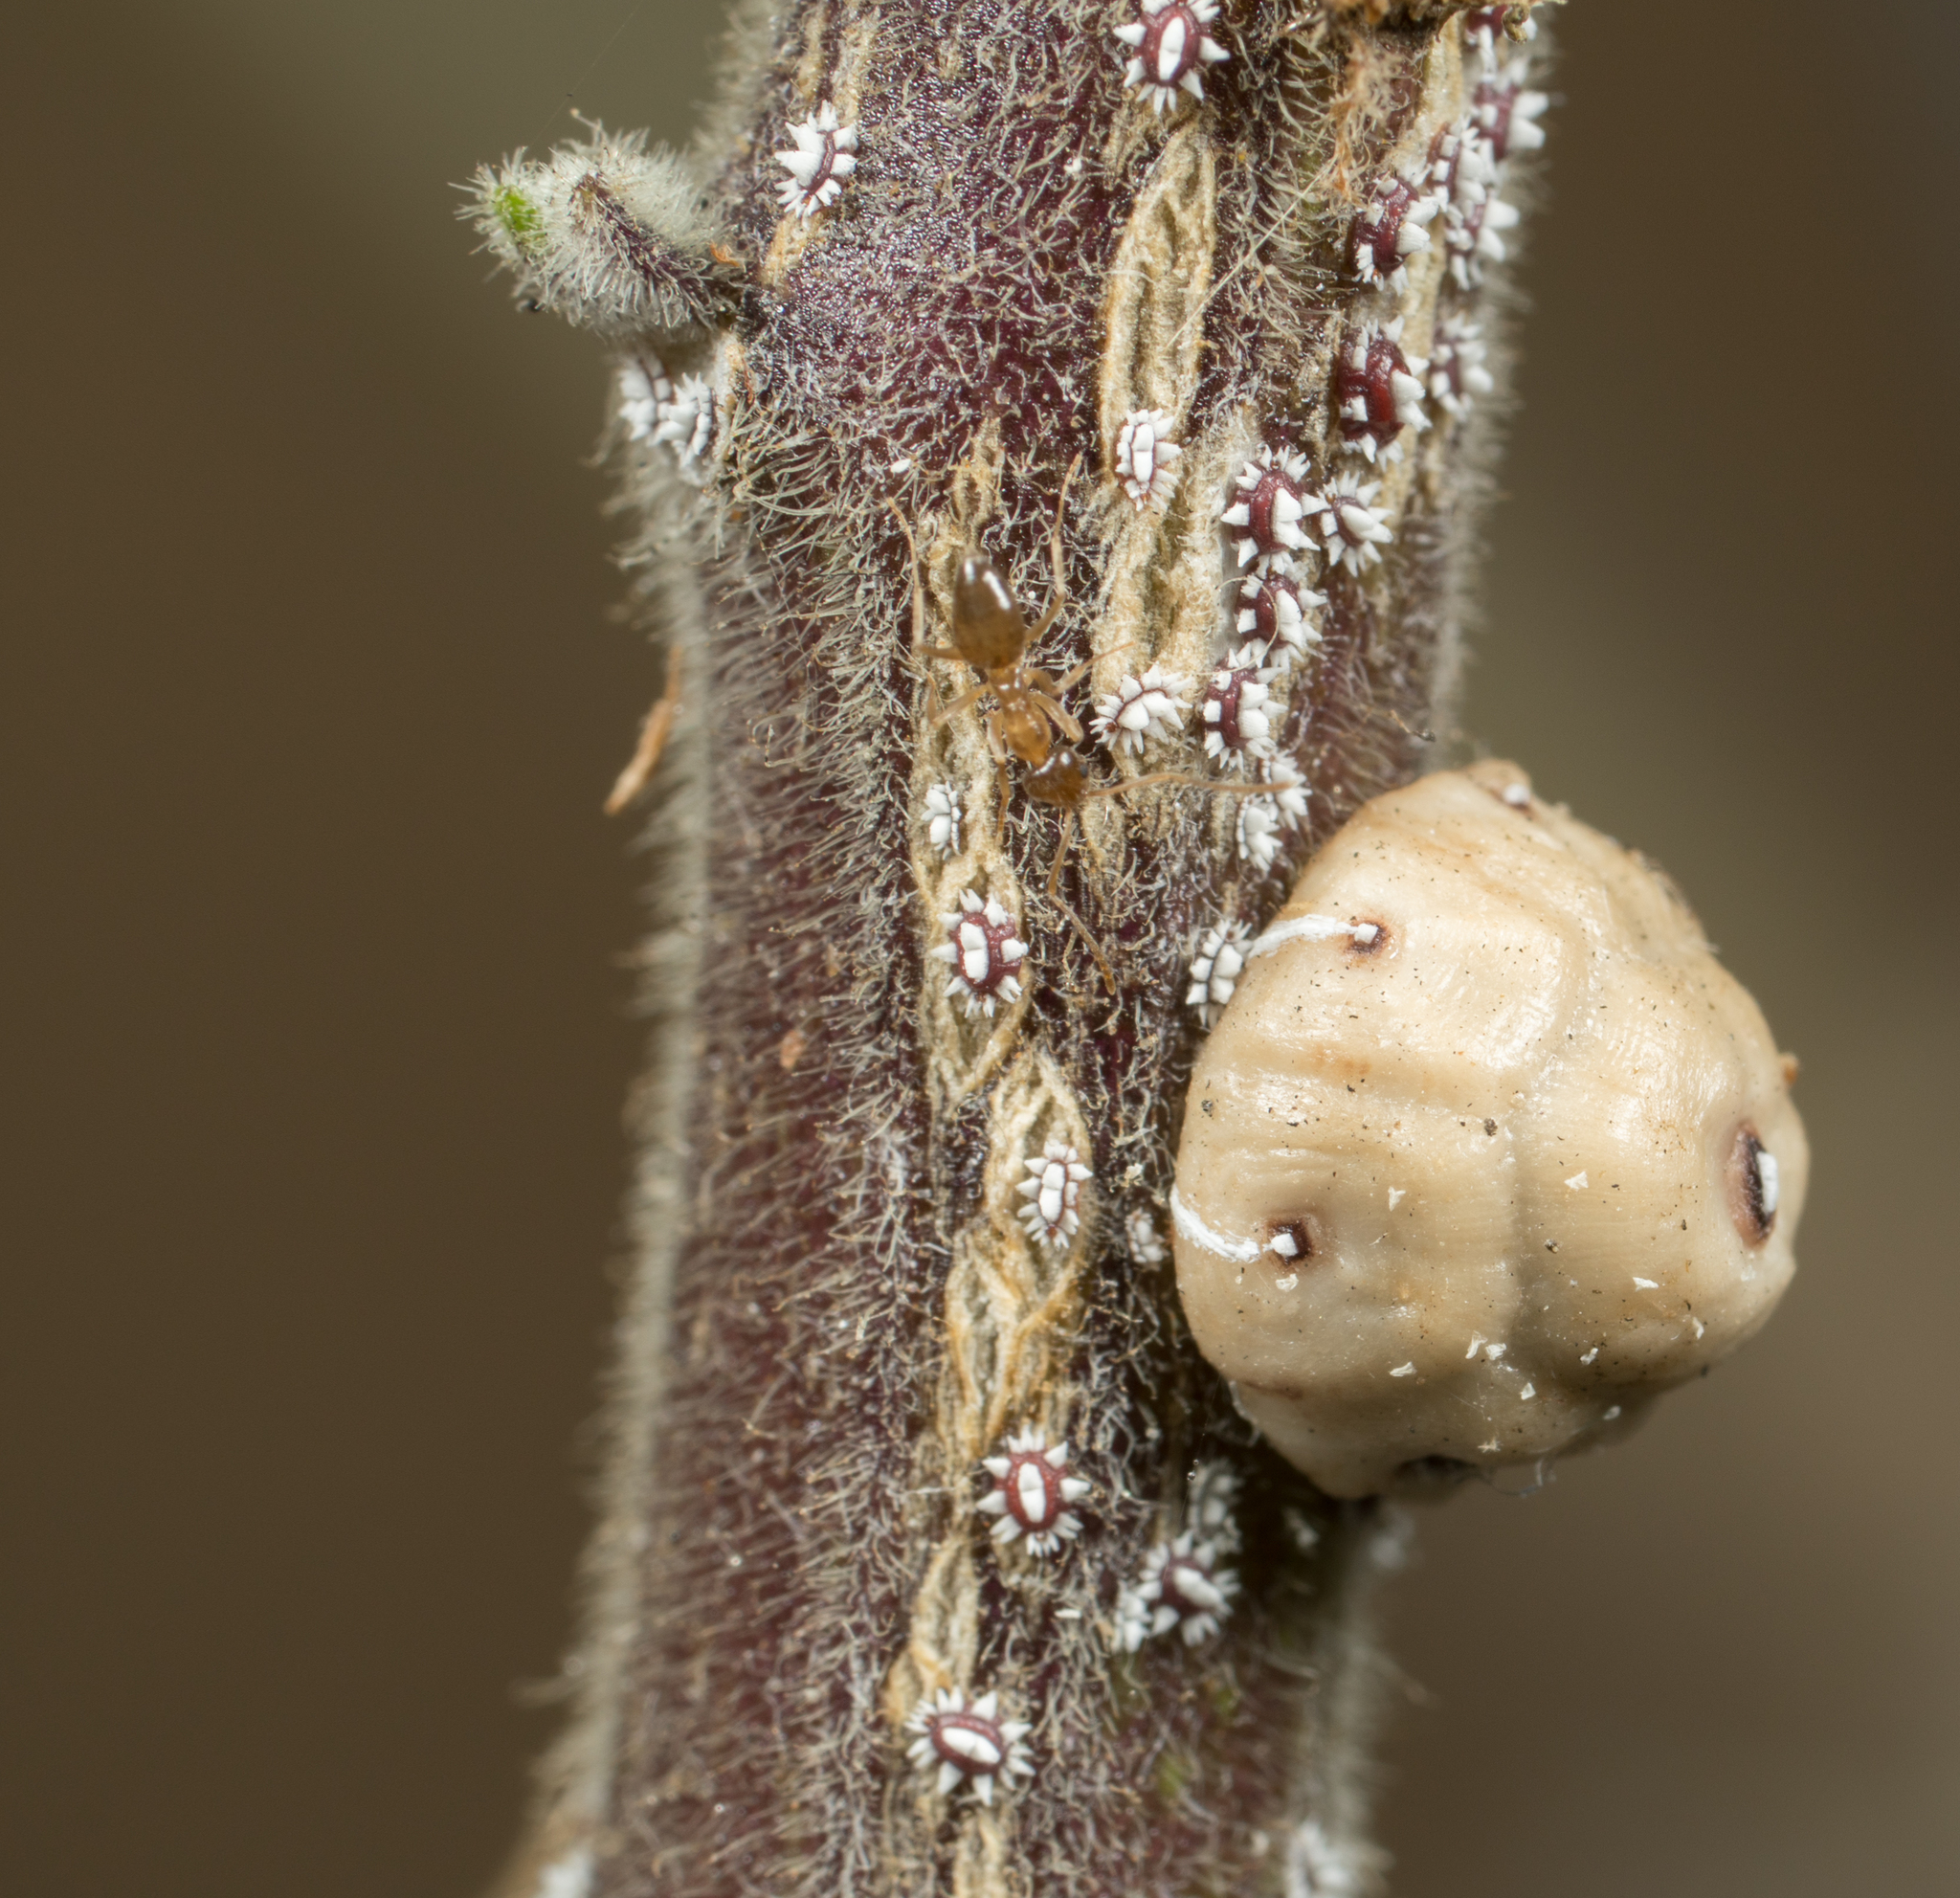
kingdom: Animalia
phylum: Arthropoda
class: Insecta
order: Hemiptera
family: Coccidae
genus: Ceroplastes
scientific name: Ceroplastes cirripediformis
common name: Barnacle scale
